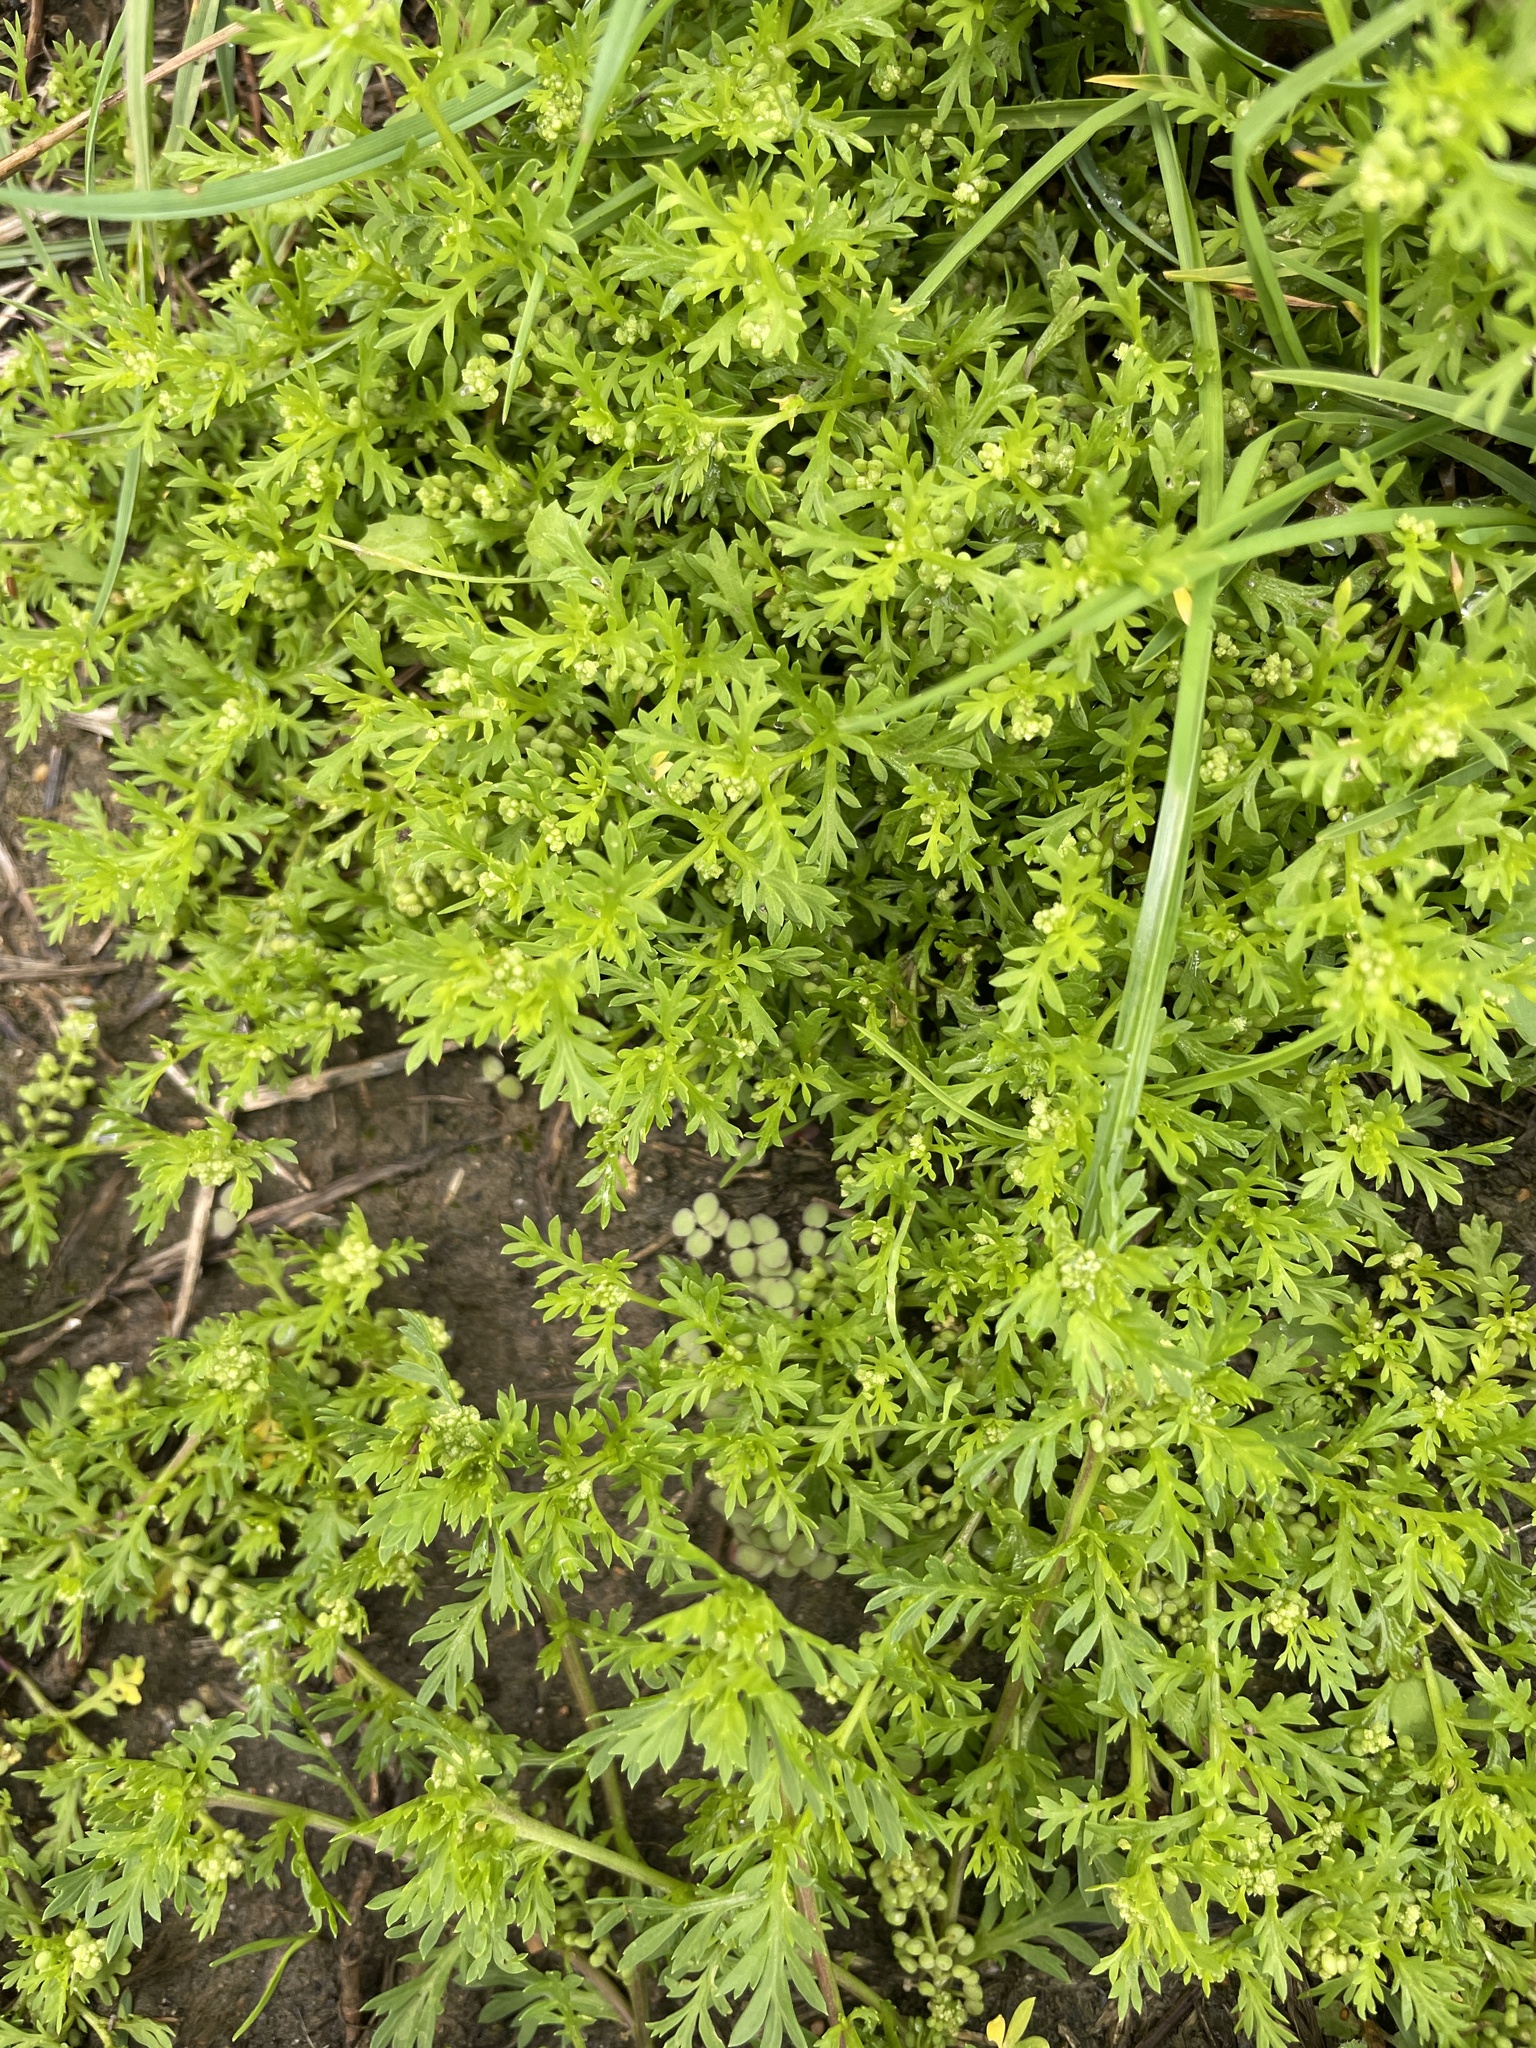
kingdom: Plantae
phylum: Tracheophyta
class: Magnoliopsida
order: Brassicales
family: Brassicaceae
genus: Lepidium
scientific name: Lepidium didymum
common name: Lesser swinecress
